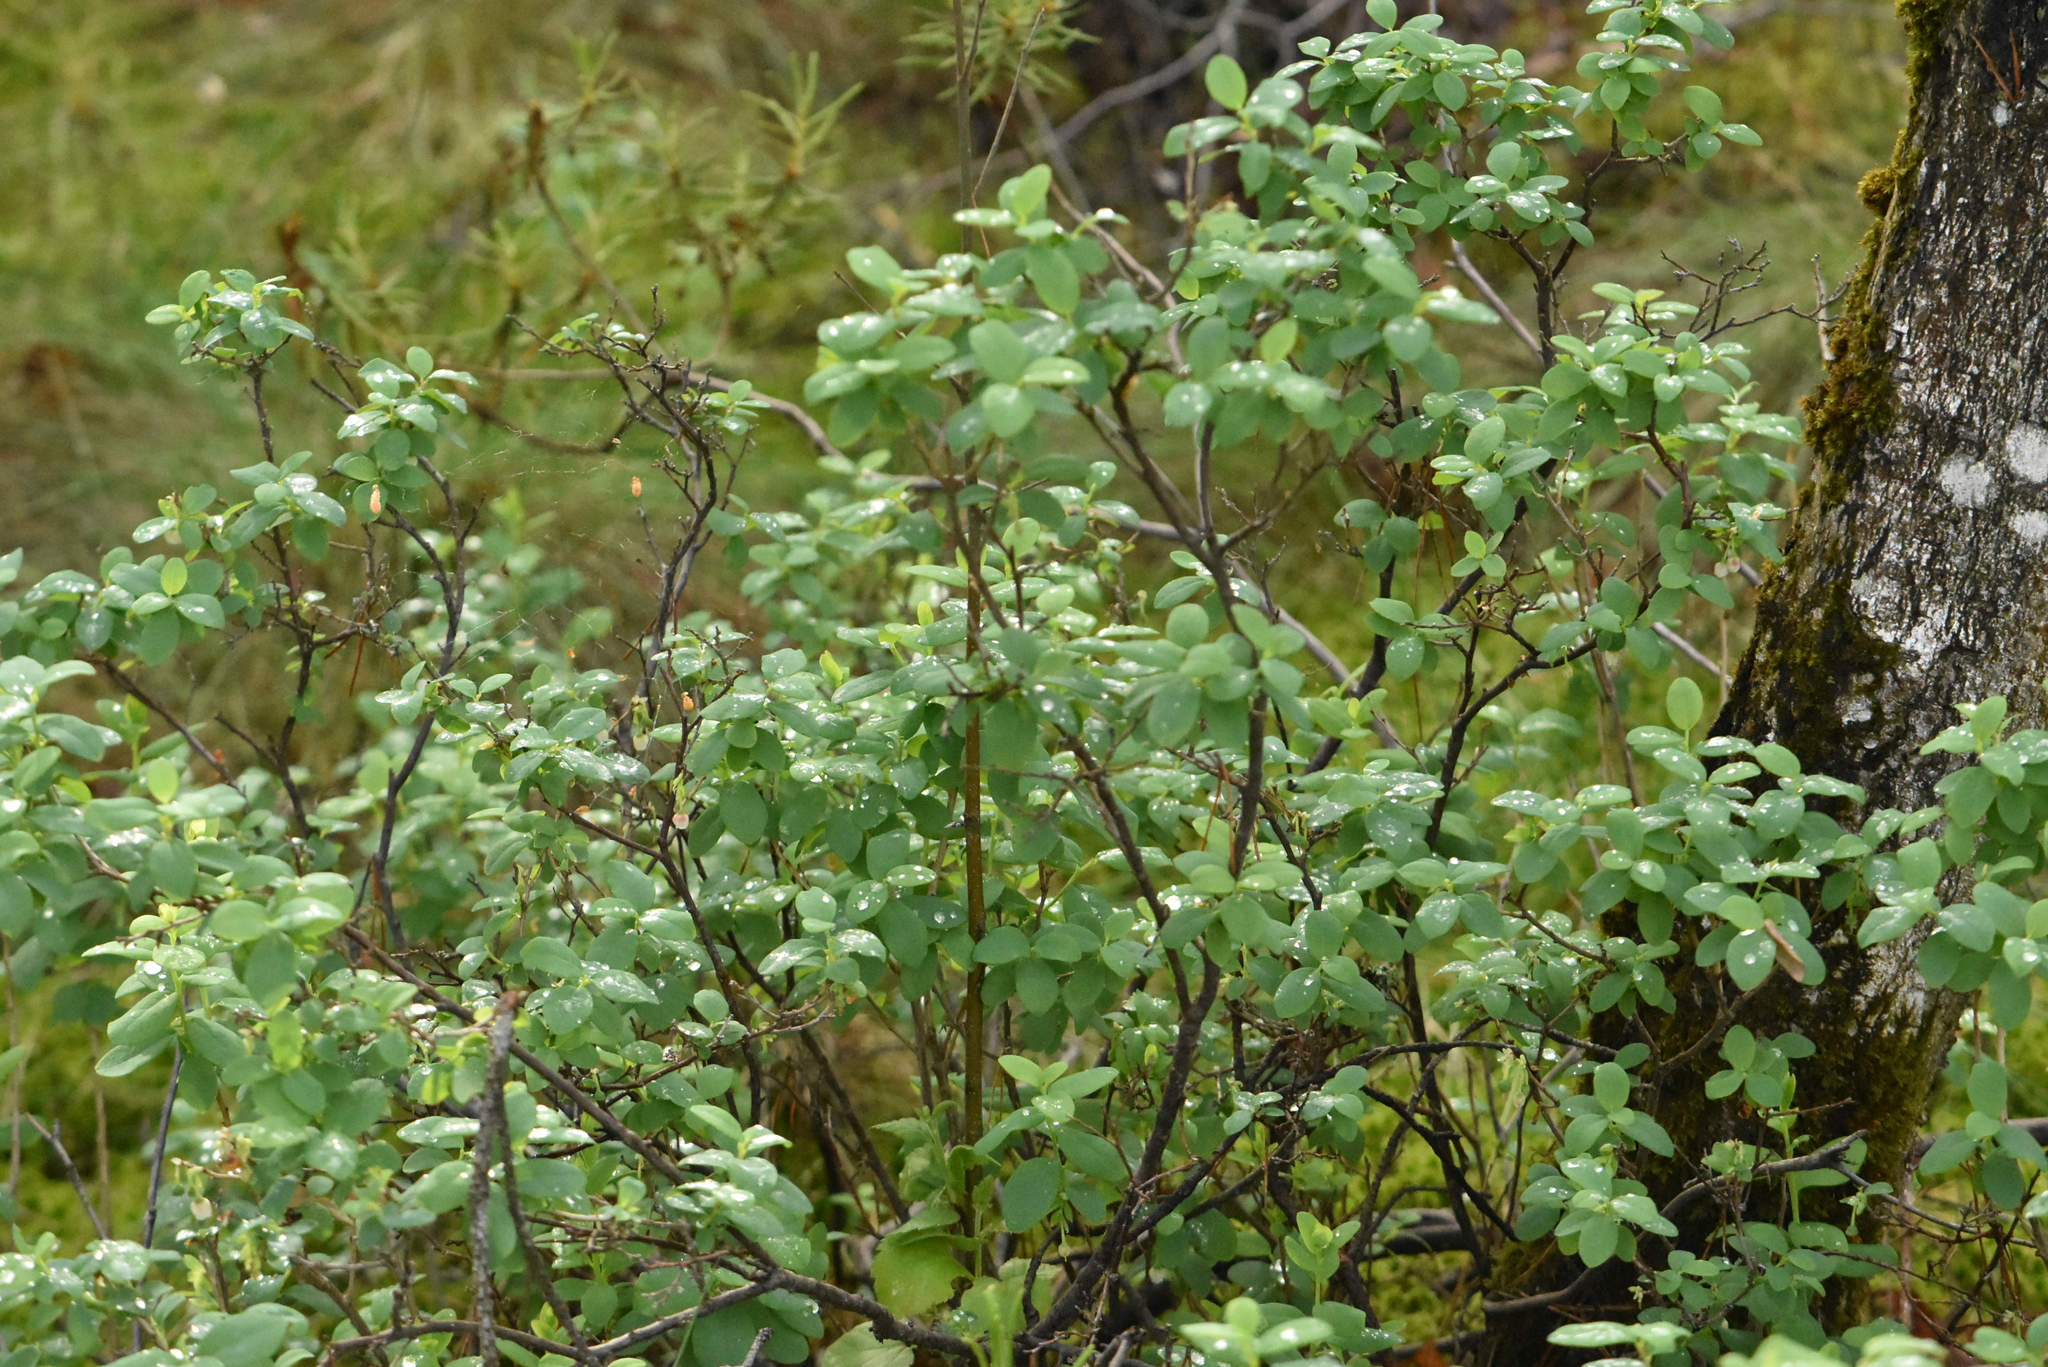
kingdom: Plantae
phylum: Tracheophyta
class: Magnoliopsida
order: Ericales
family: Ericaceae
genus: Vaccinium
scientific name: Vaccinium uliginosum
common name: Bog bilberry
